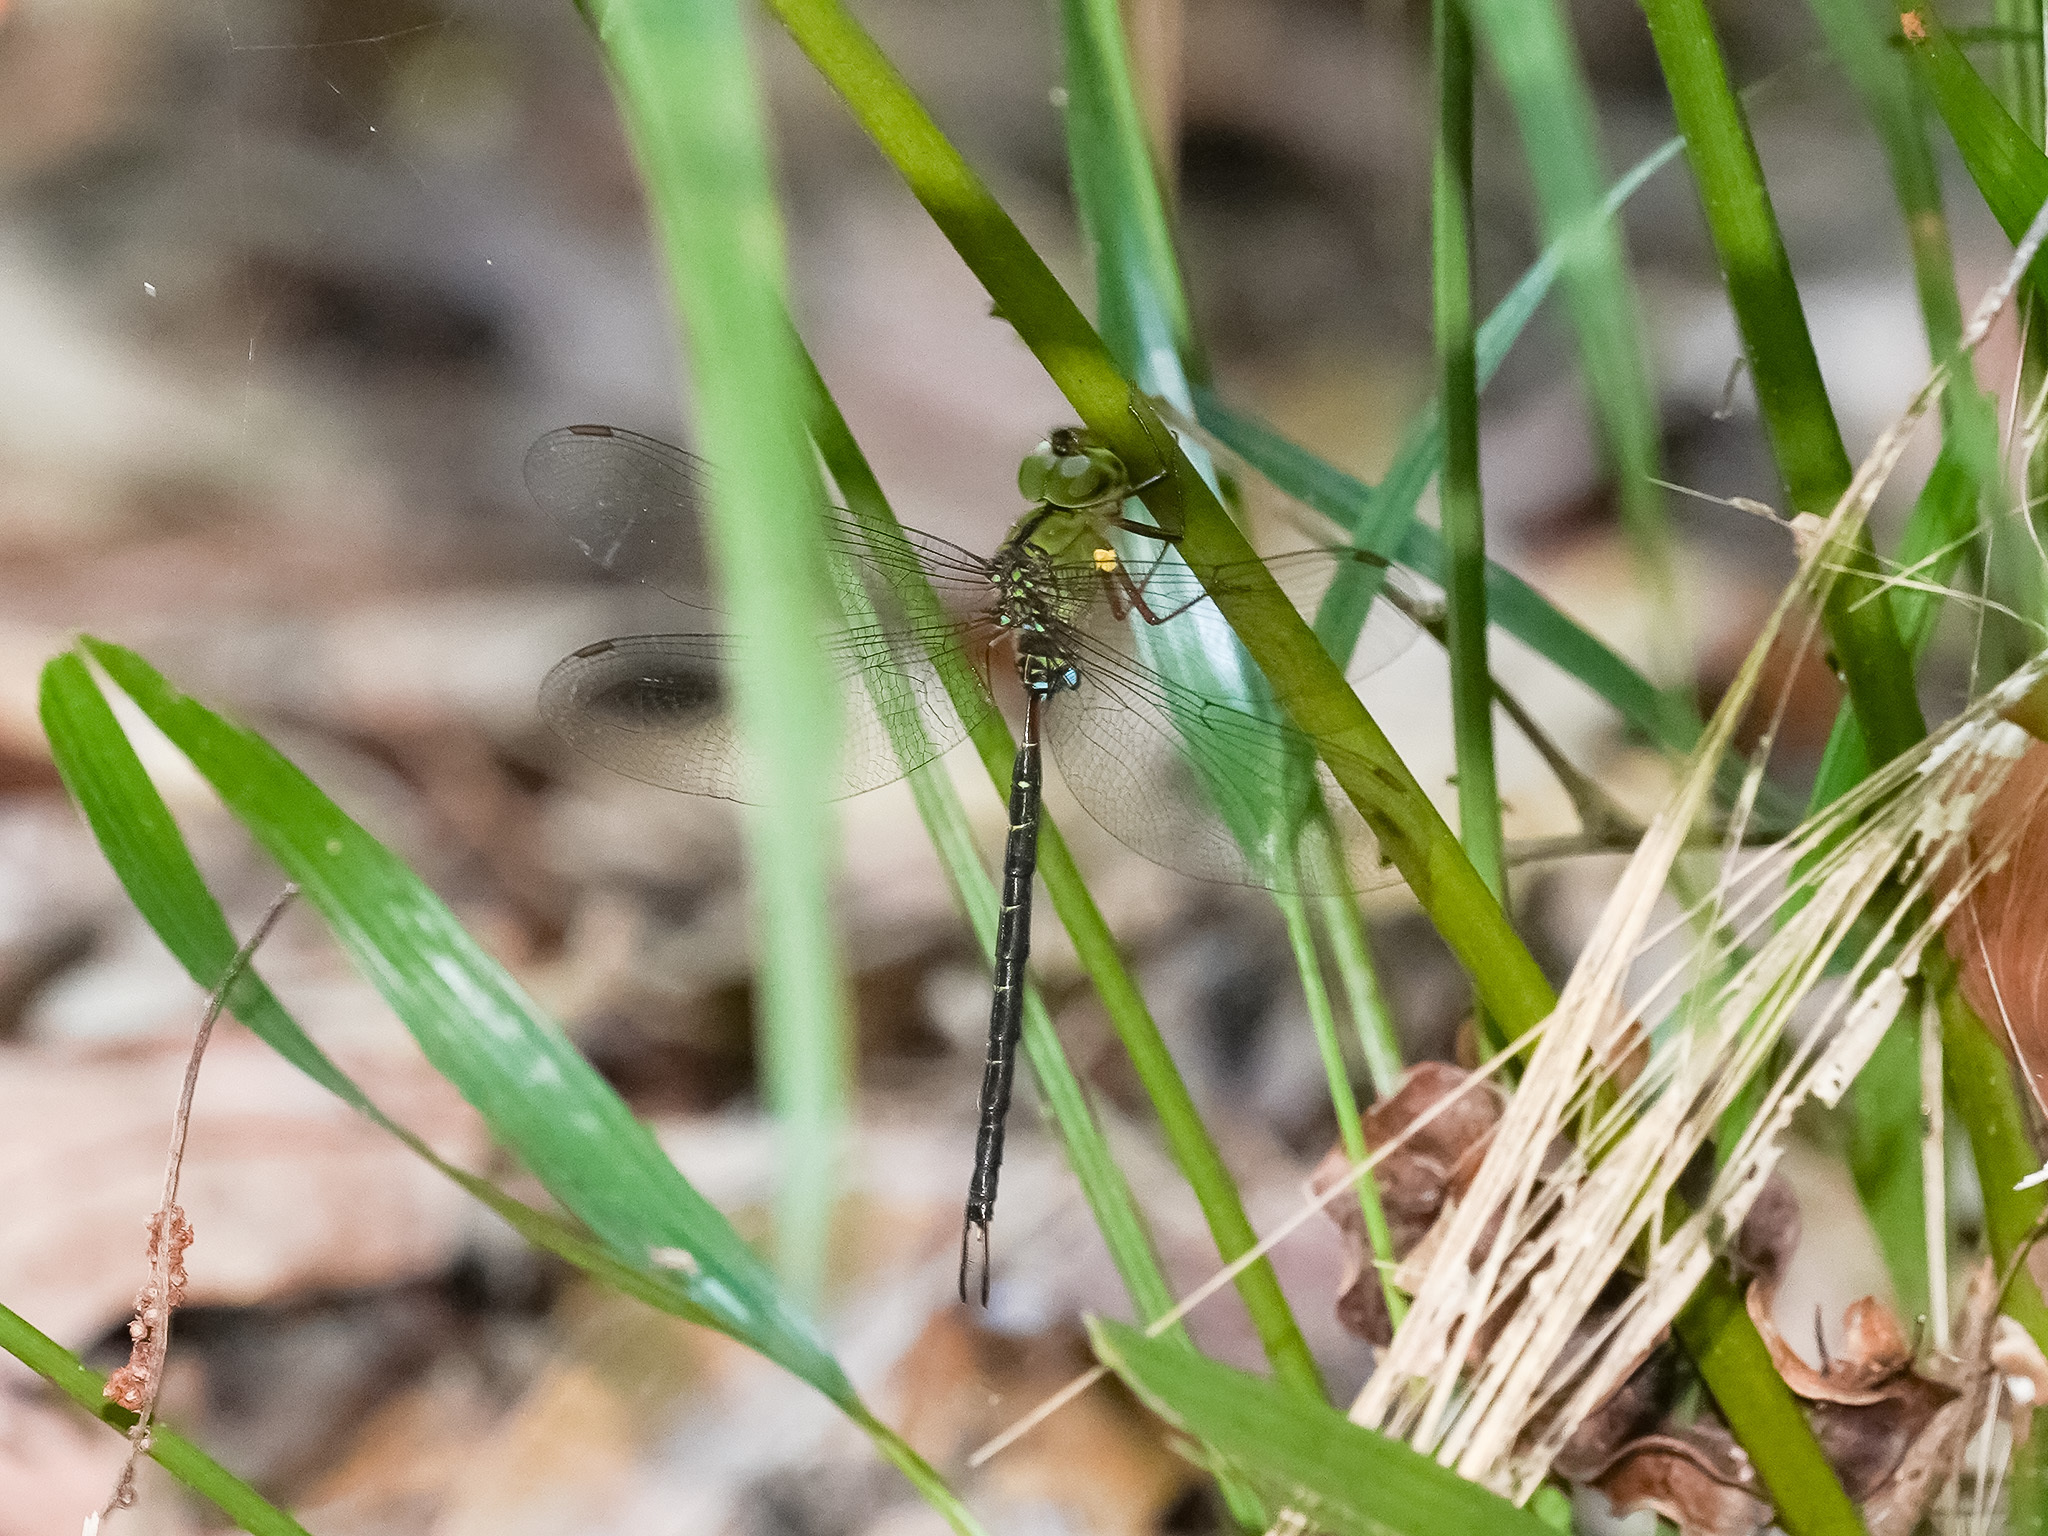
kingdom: Animalia
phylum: Arthropoda
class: Insecta
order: Odonata
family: Aeshnidae
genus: Gynacantha
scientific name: Gynacantha dohrni
